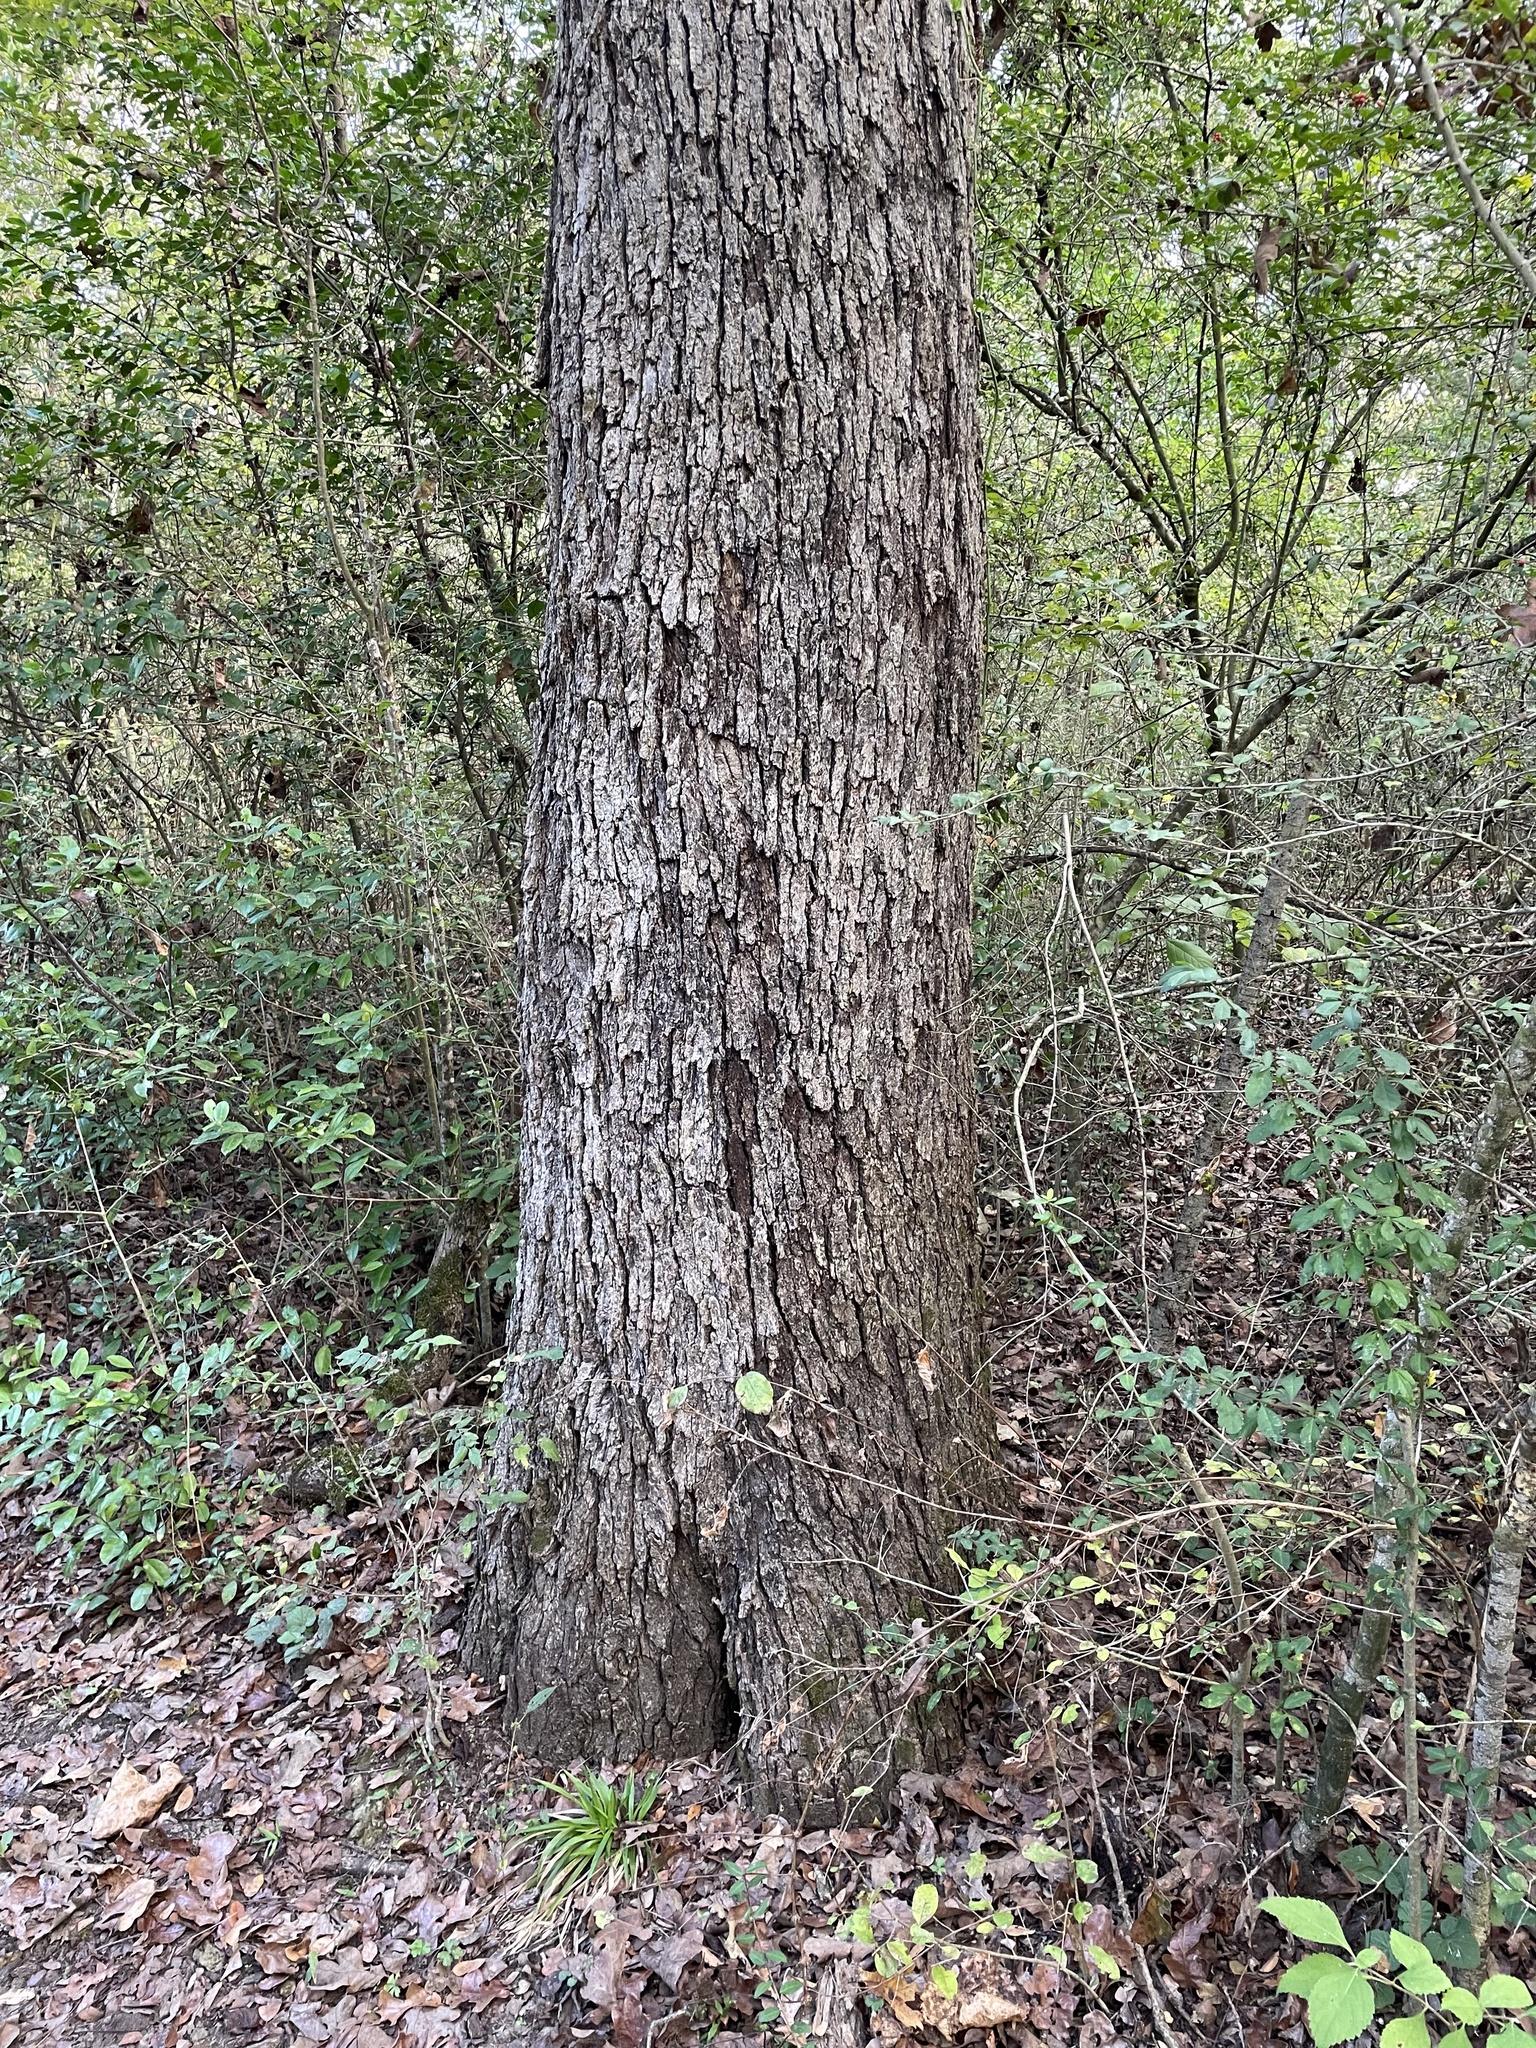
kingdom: Plantae
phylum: Tracheophyta
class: Magnoliopsida
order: Fagales
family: Fagaceae
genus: Quercus
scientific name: Quercus stellata
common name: Post oak
